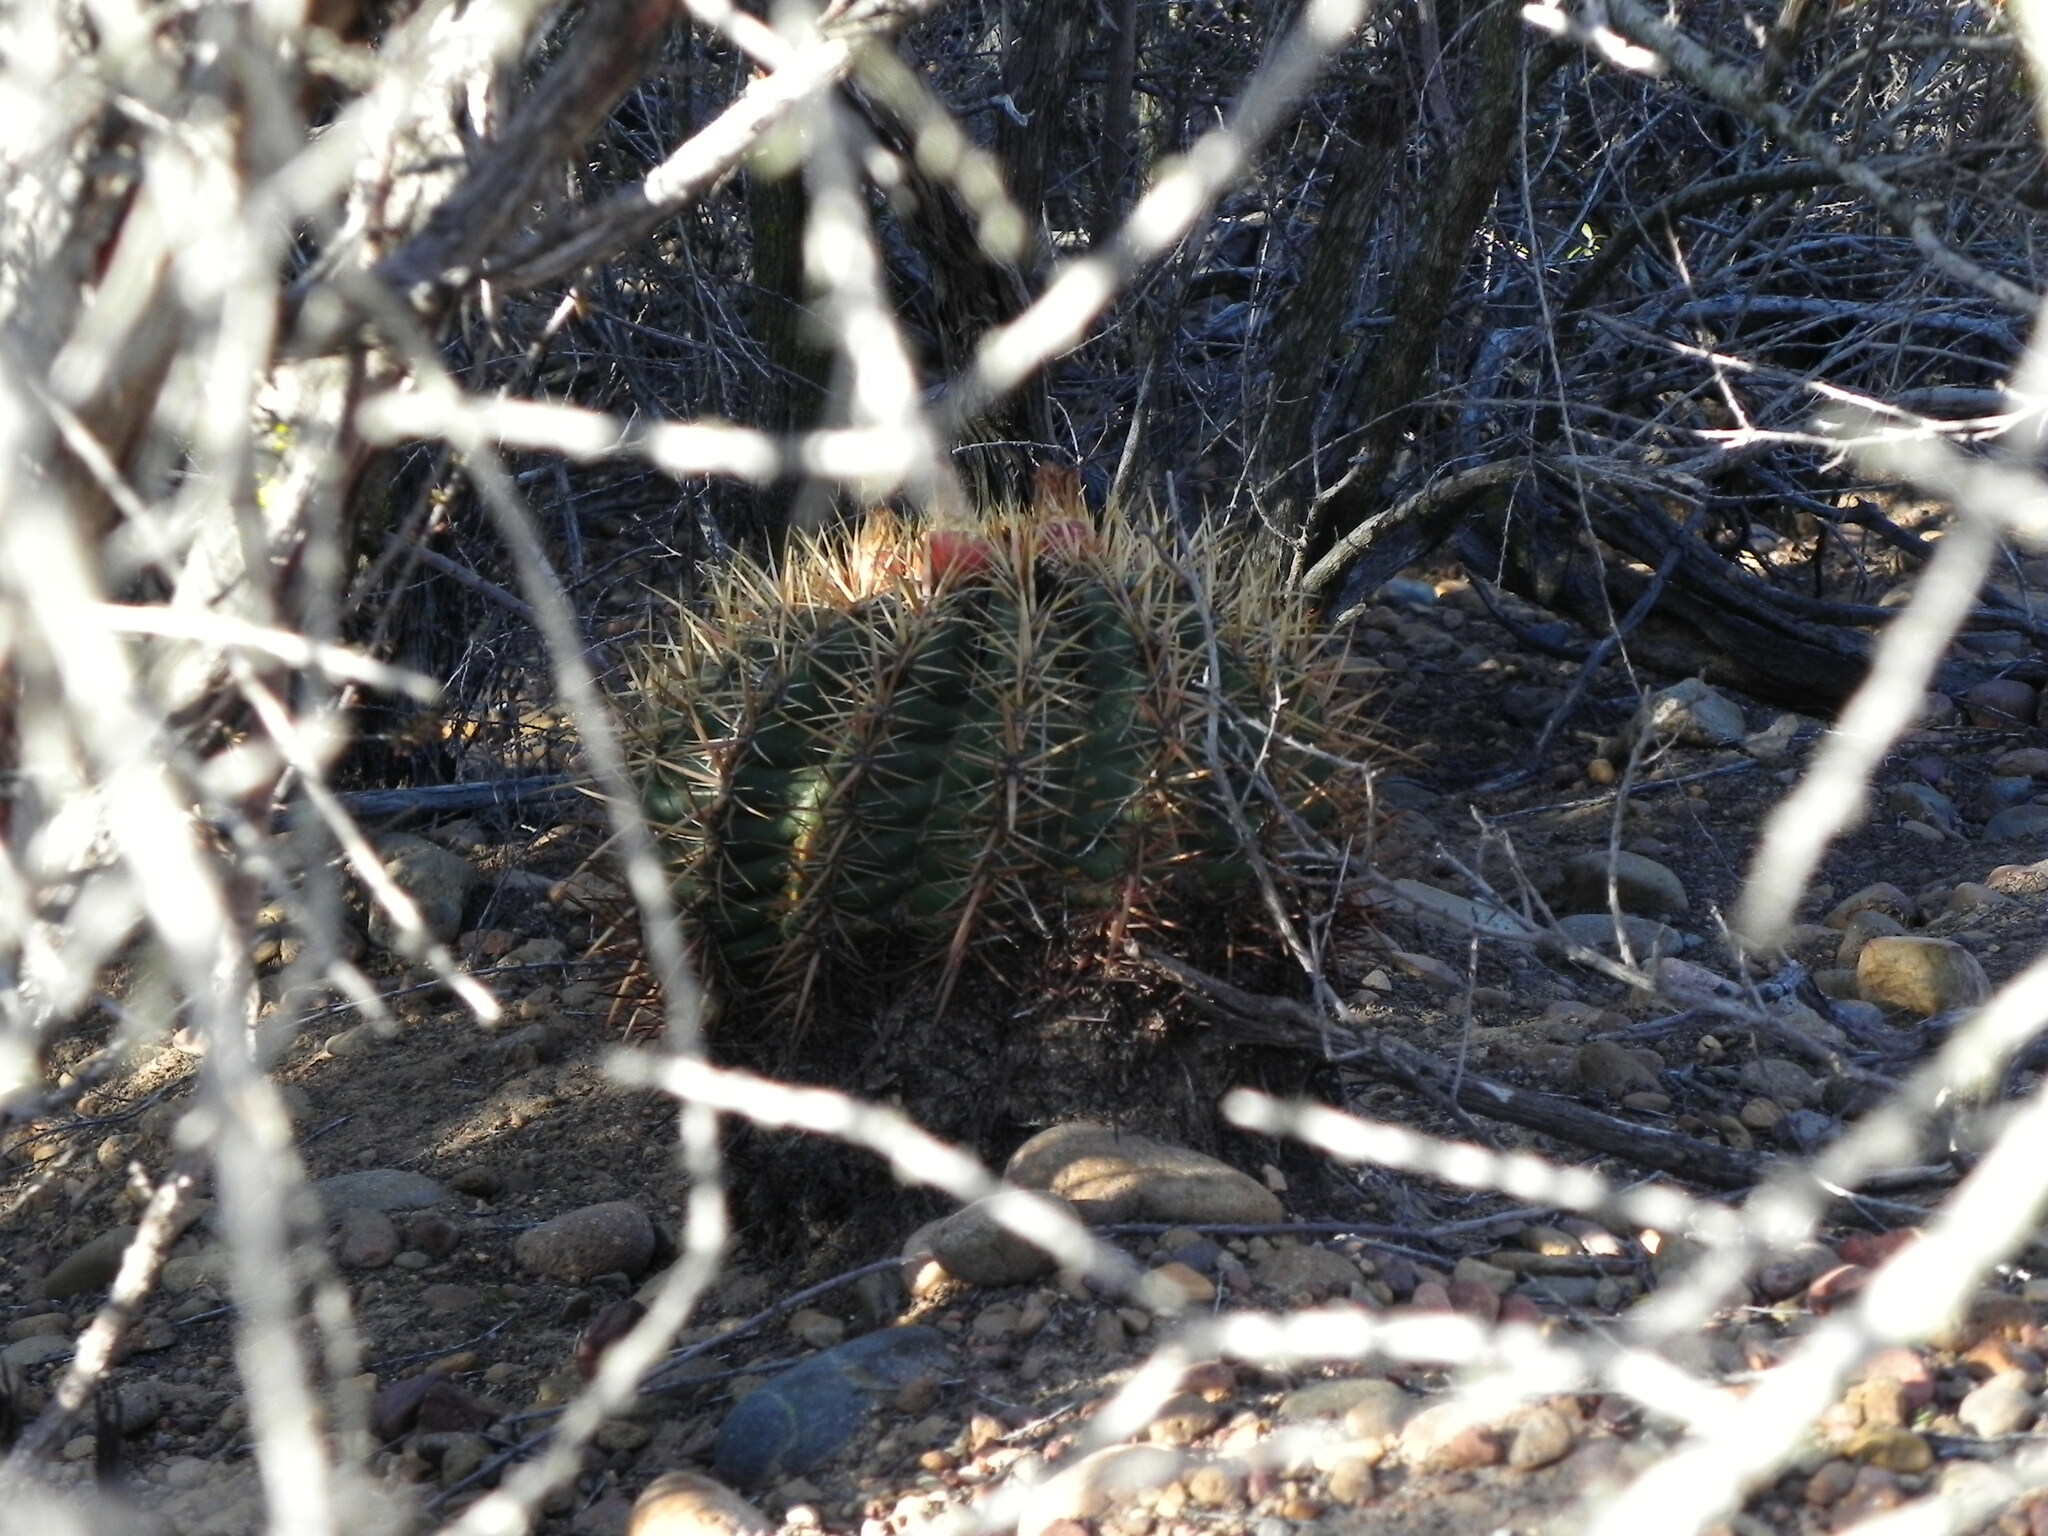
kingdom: Plantae
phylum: Tracheophyta
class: Magnoliopsida
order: Caryophyllales
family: Cactaceae
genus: Ferocactus
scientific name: Ferocactus viridescens
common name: San diego barrel cactus
